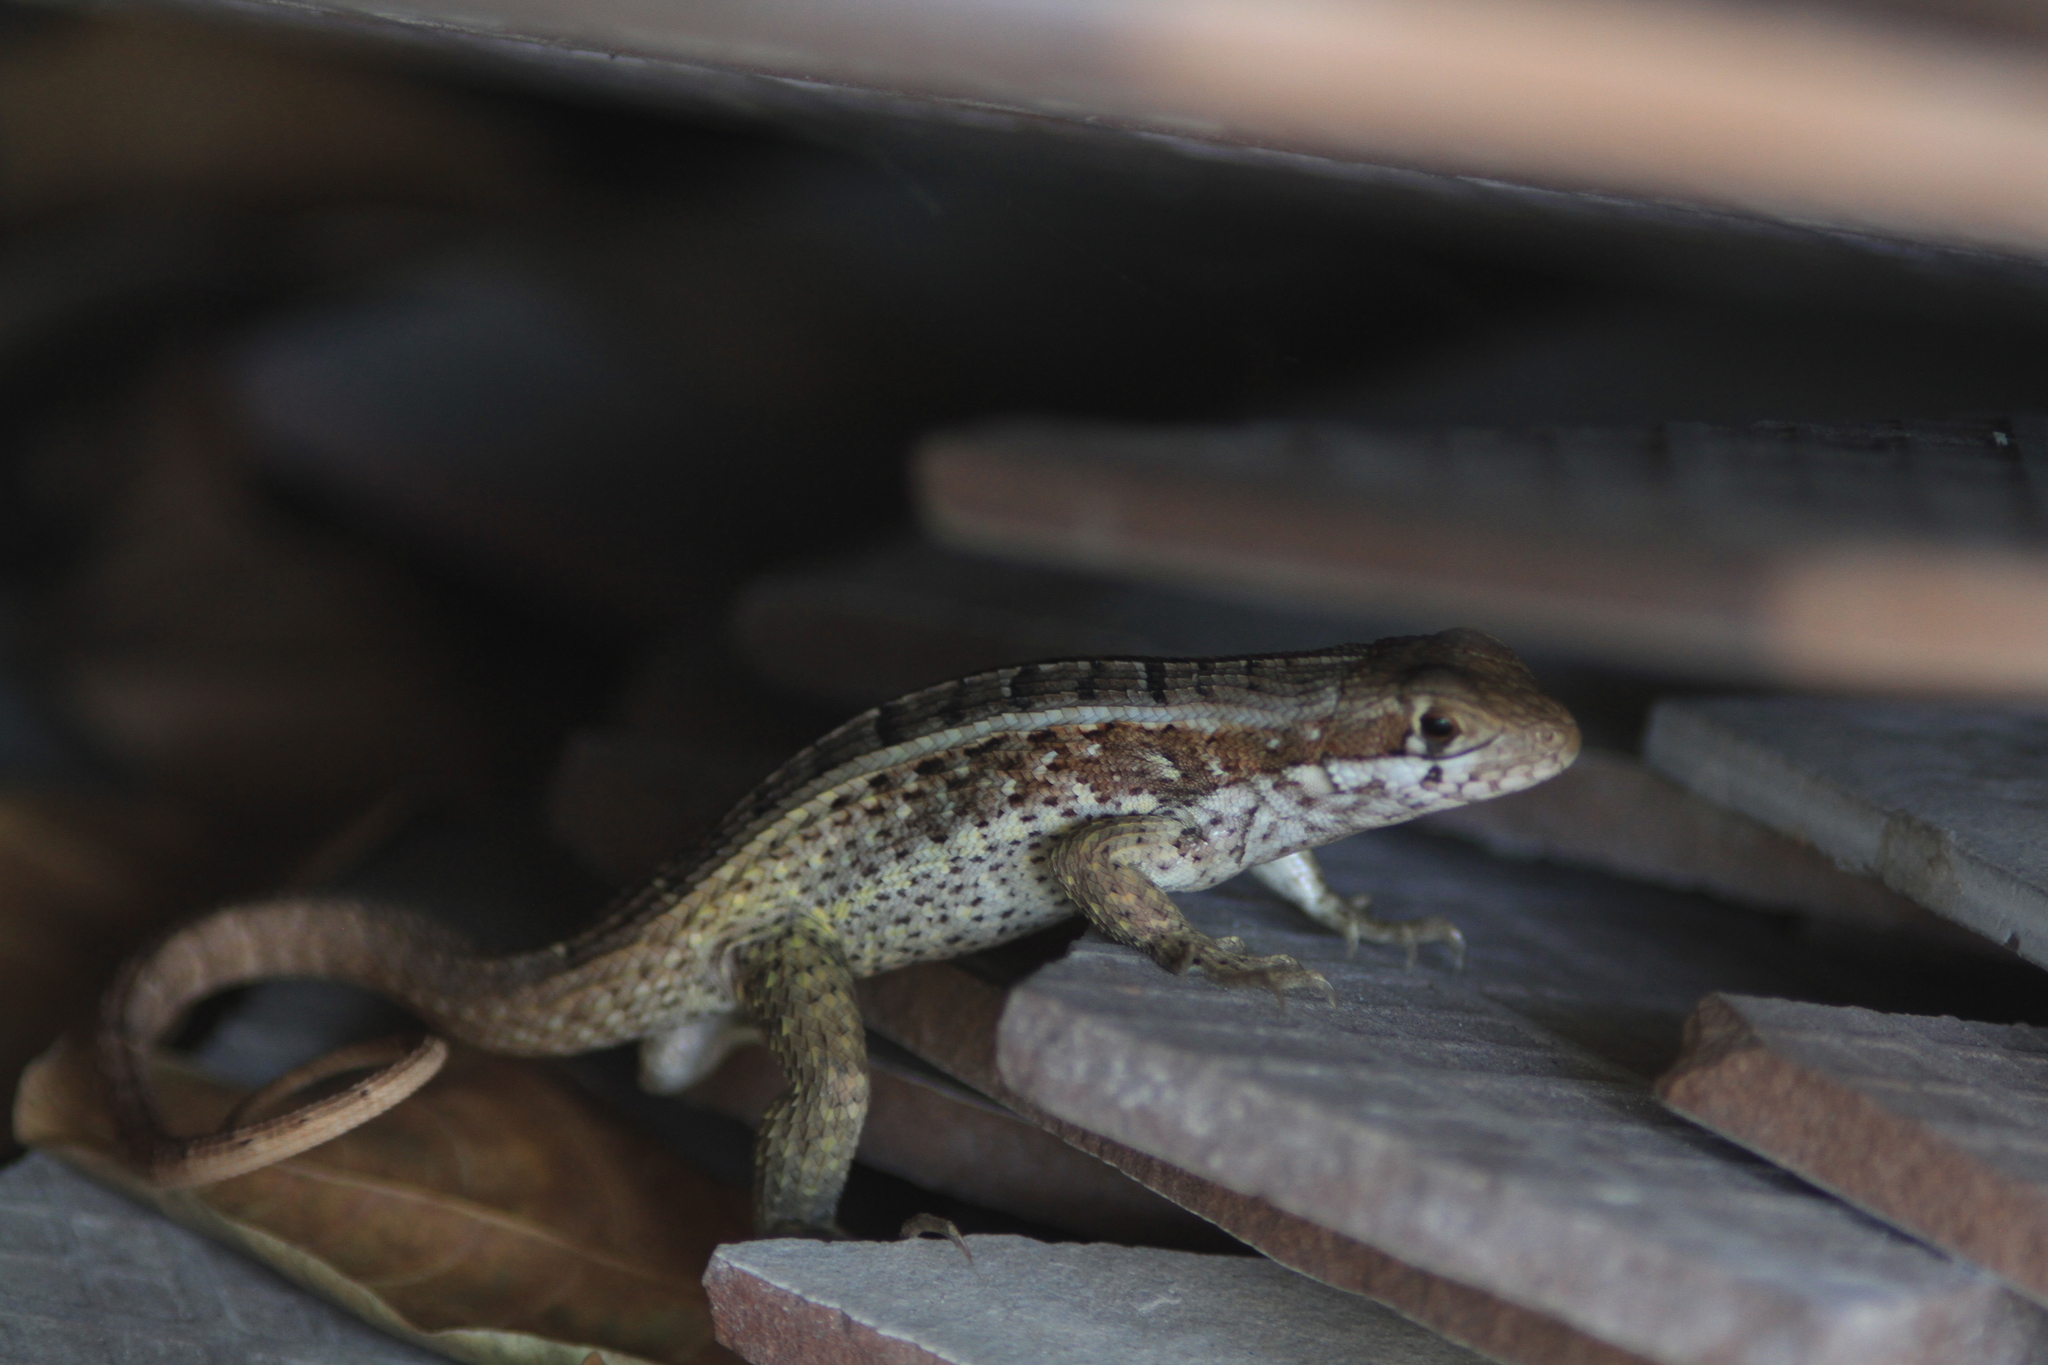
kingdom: Animalia
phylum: Chordata
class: Squamata
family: Leiocephalidae
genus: Leiocephalus
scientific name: Leiocephalus melanochlorus
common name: Jeremie curlytail lizard
